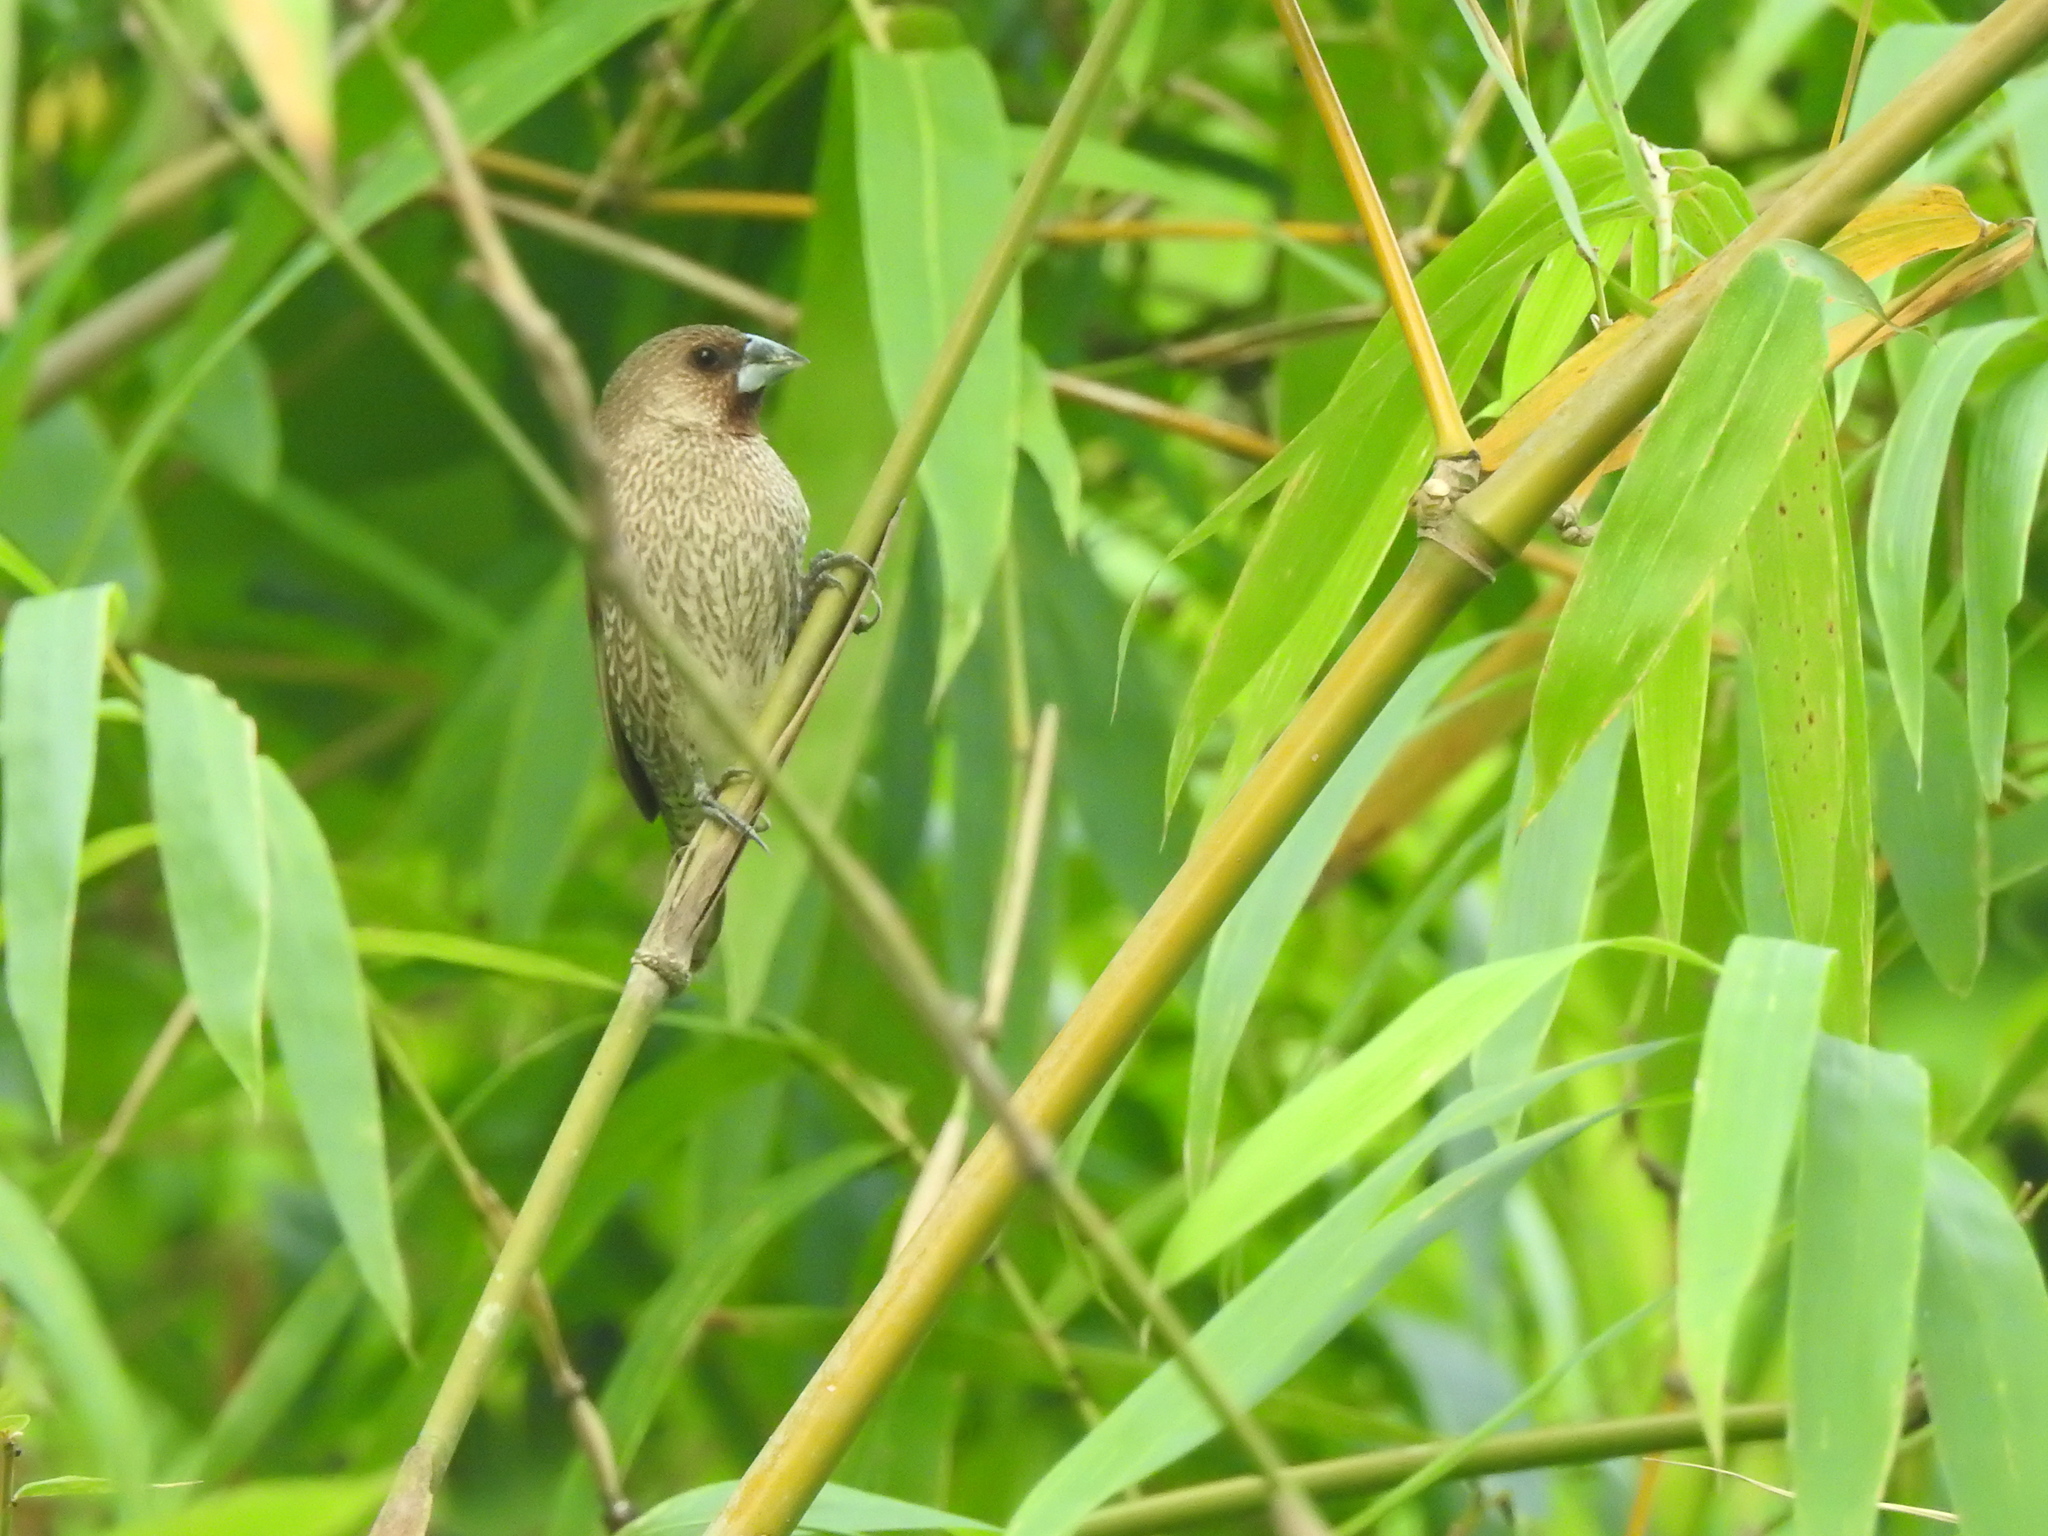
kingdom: Animalia
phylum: Chordata
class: Aves
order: Passeriformes
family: Estrildidae
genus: Lonchura
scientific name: Lonchura punctulata
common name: Scaly-breasted munia
